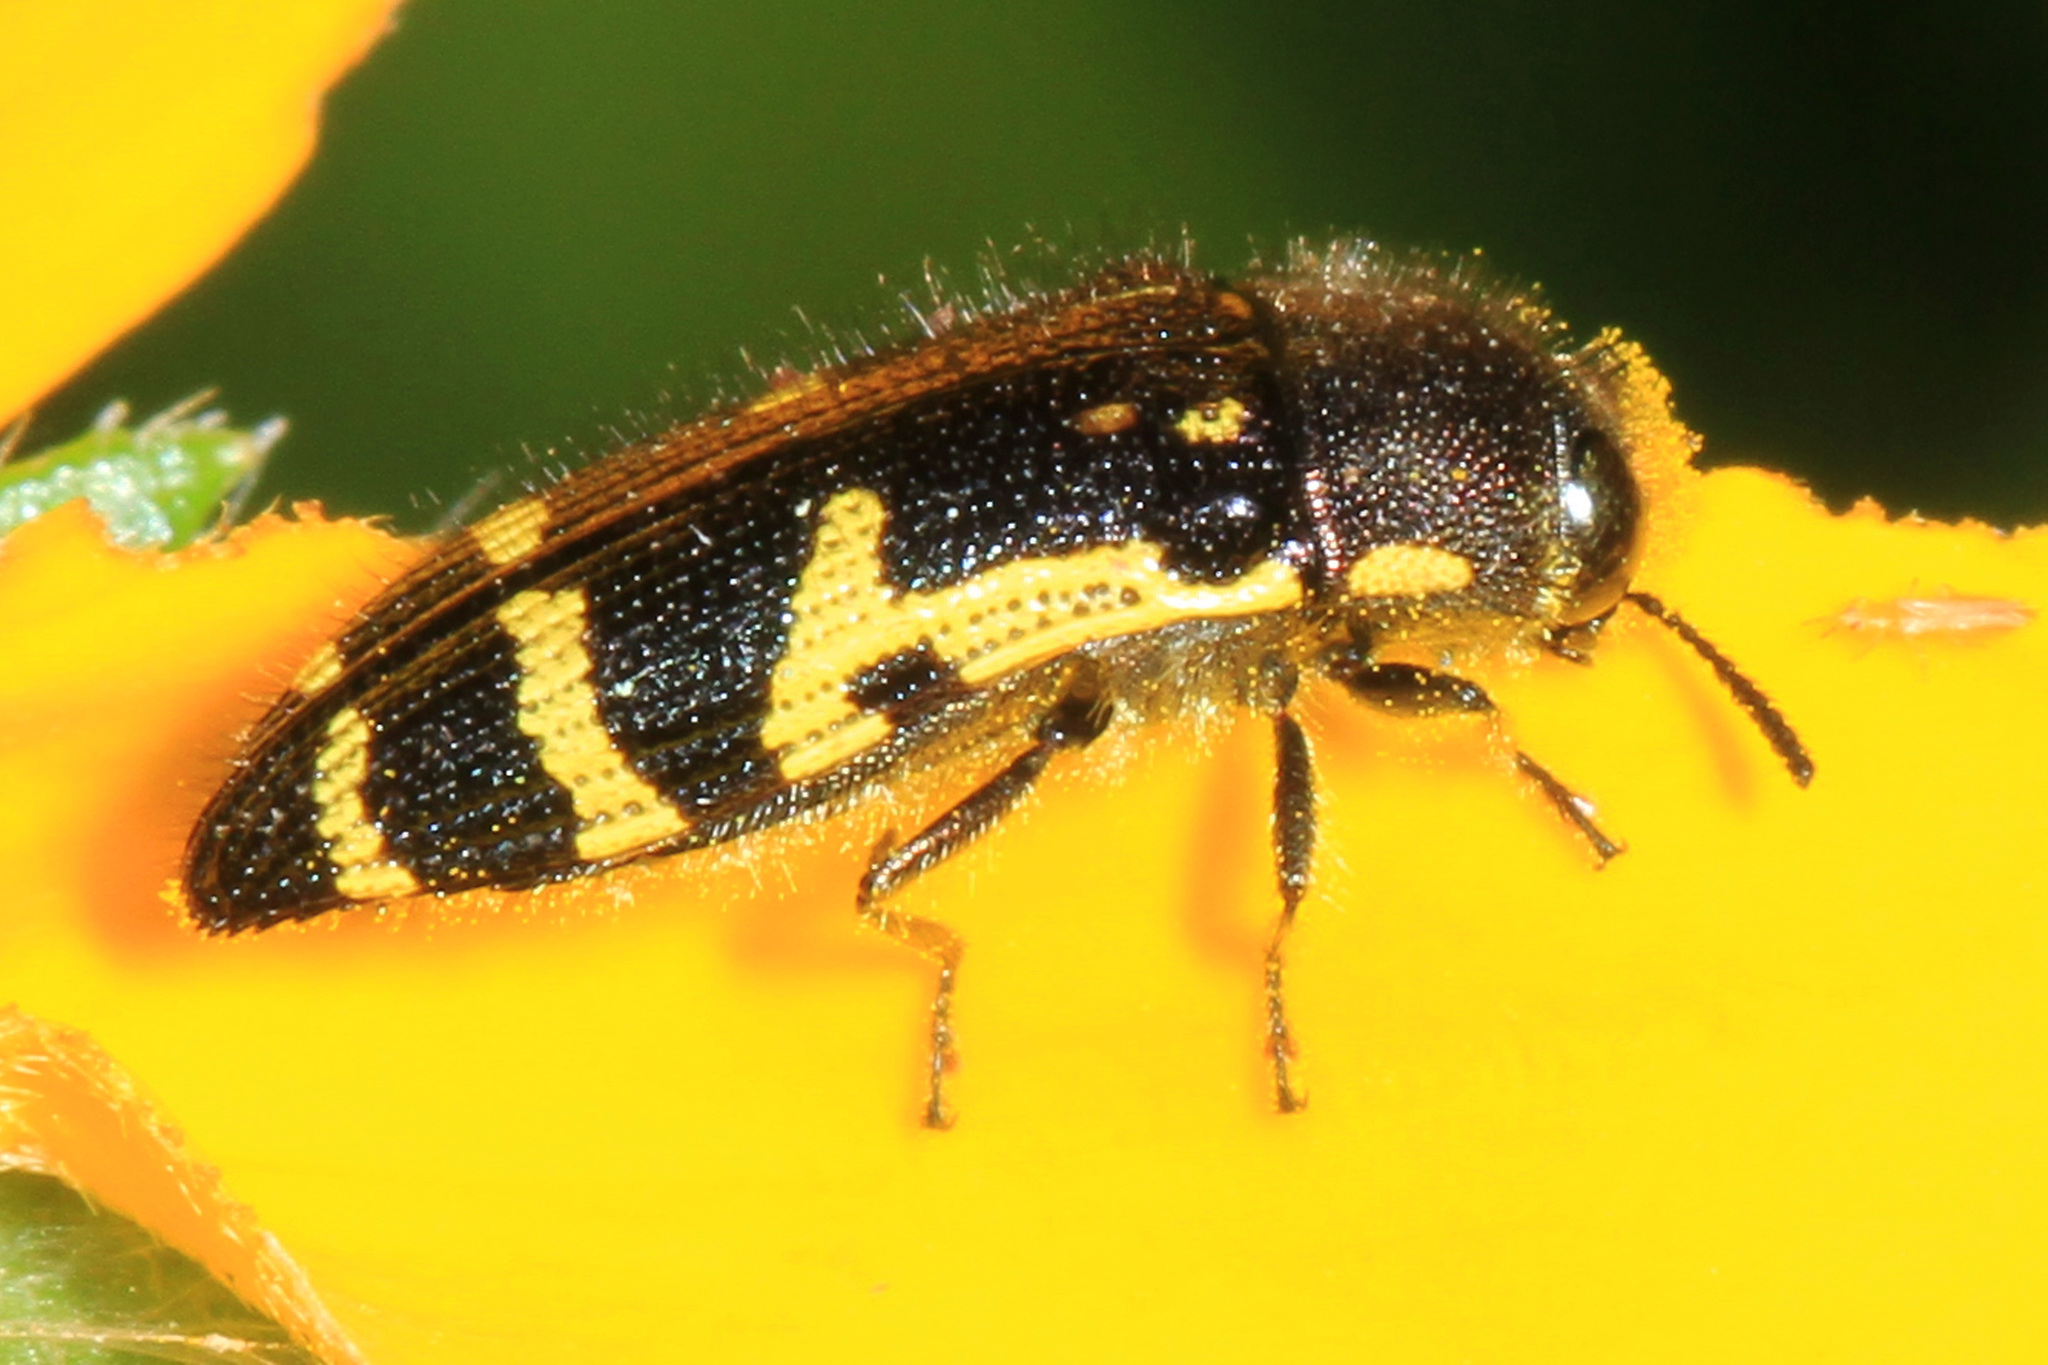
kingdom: Animalia
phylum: Arthropoda
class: Insecta
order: Coleoptera
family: Buprestidae
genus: Acmaeodera
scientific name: Acmaeodera pulchella
